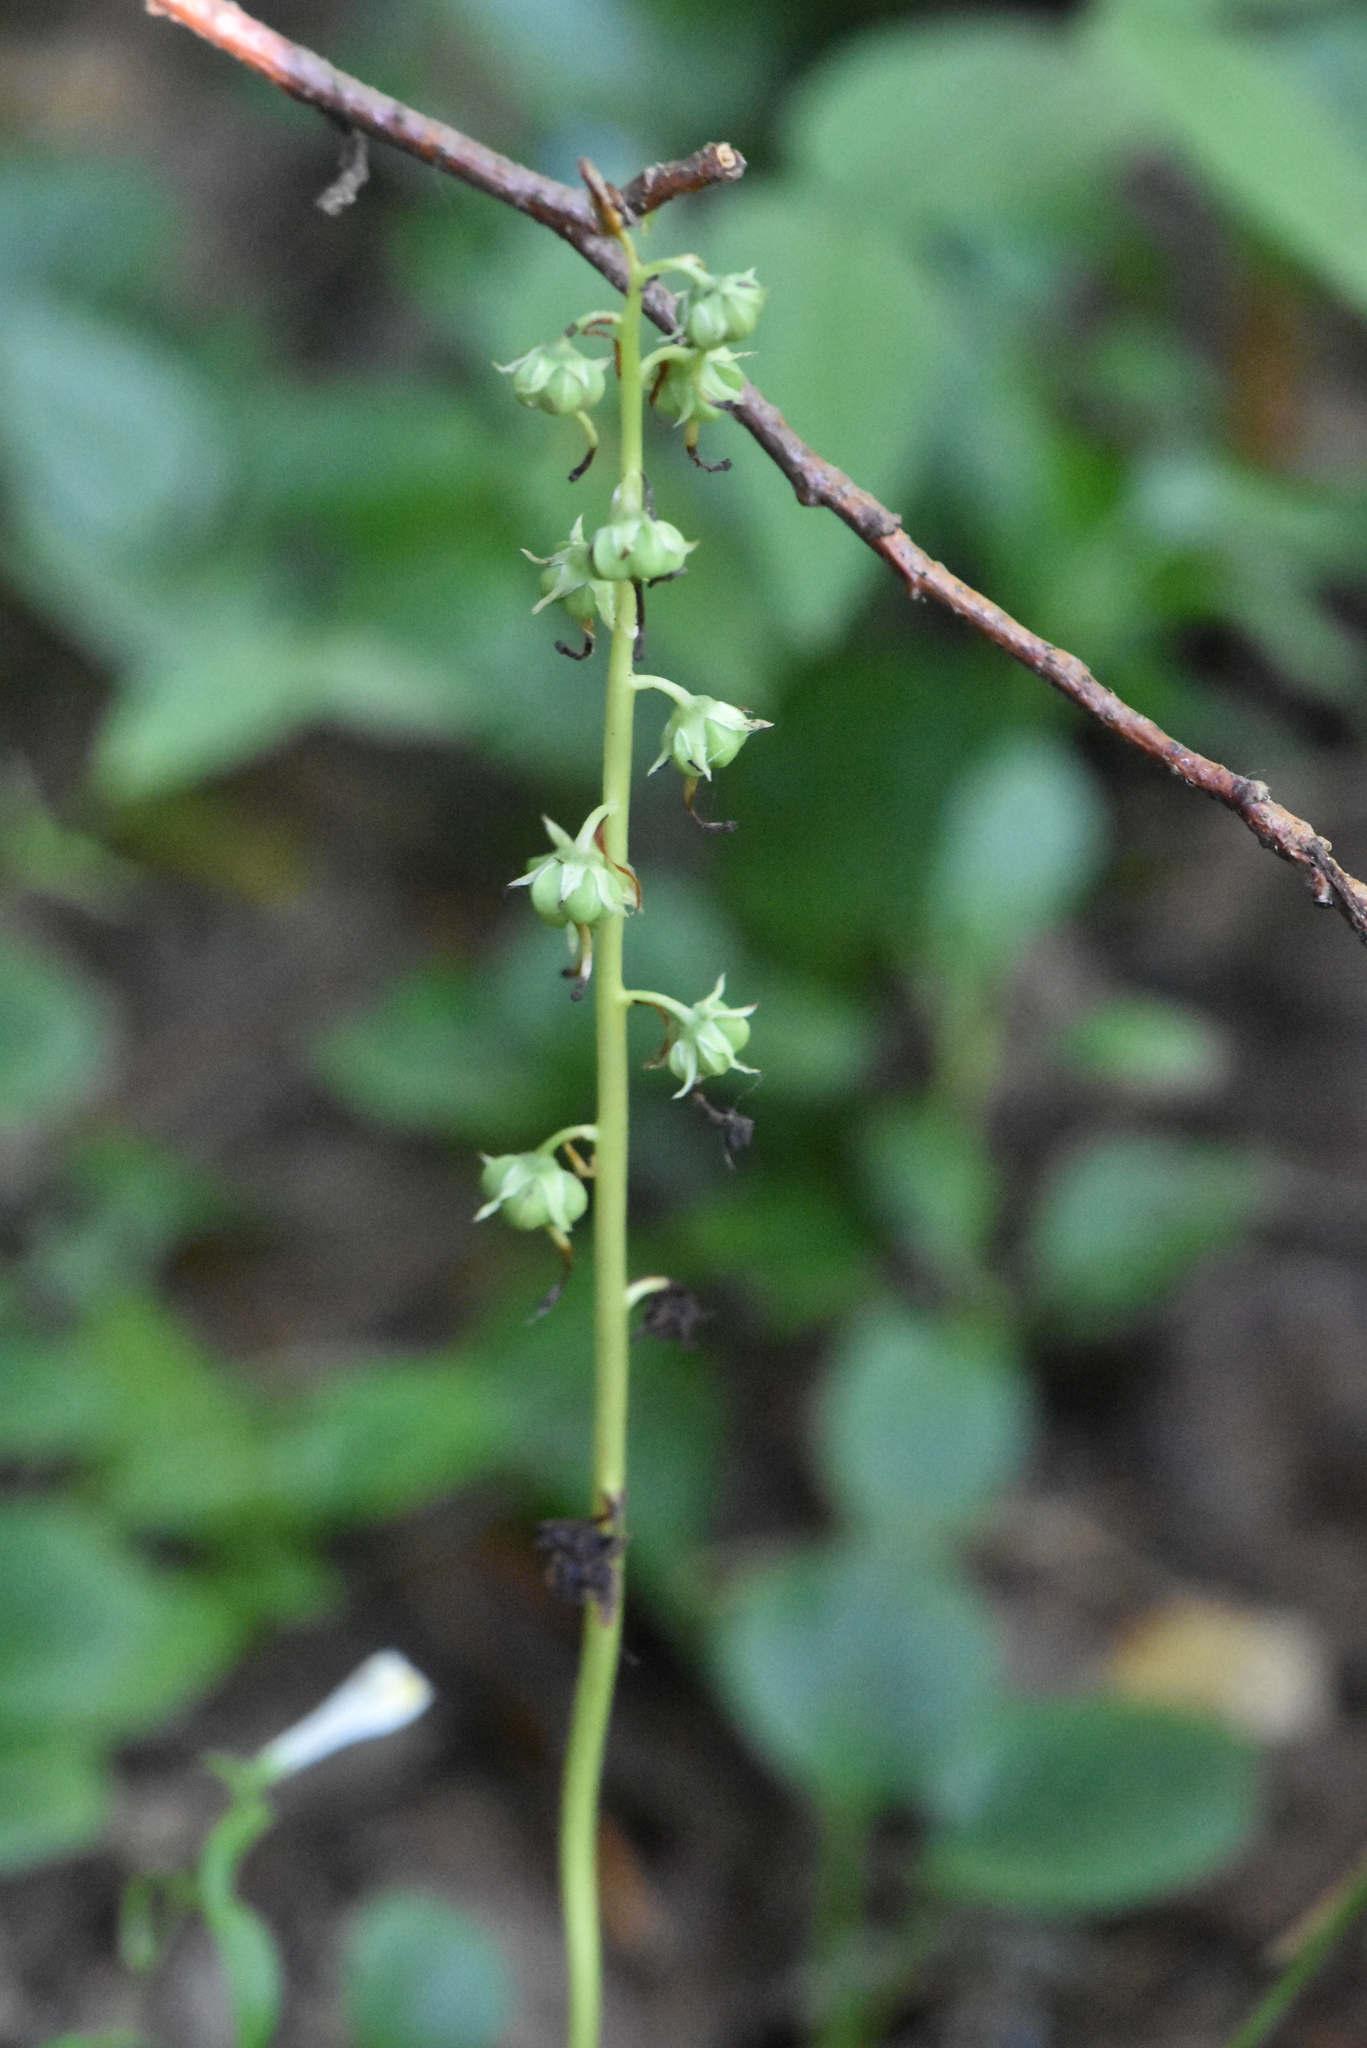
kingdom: Plantae
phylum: Tracheophyta
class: Magnoliopsida
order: Ericales
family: Ericaceae
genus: Pyrola
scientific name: Pyrola rotundifolia
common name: Round-leaved wintergreen
